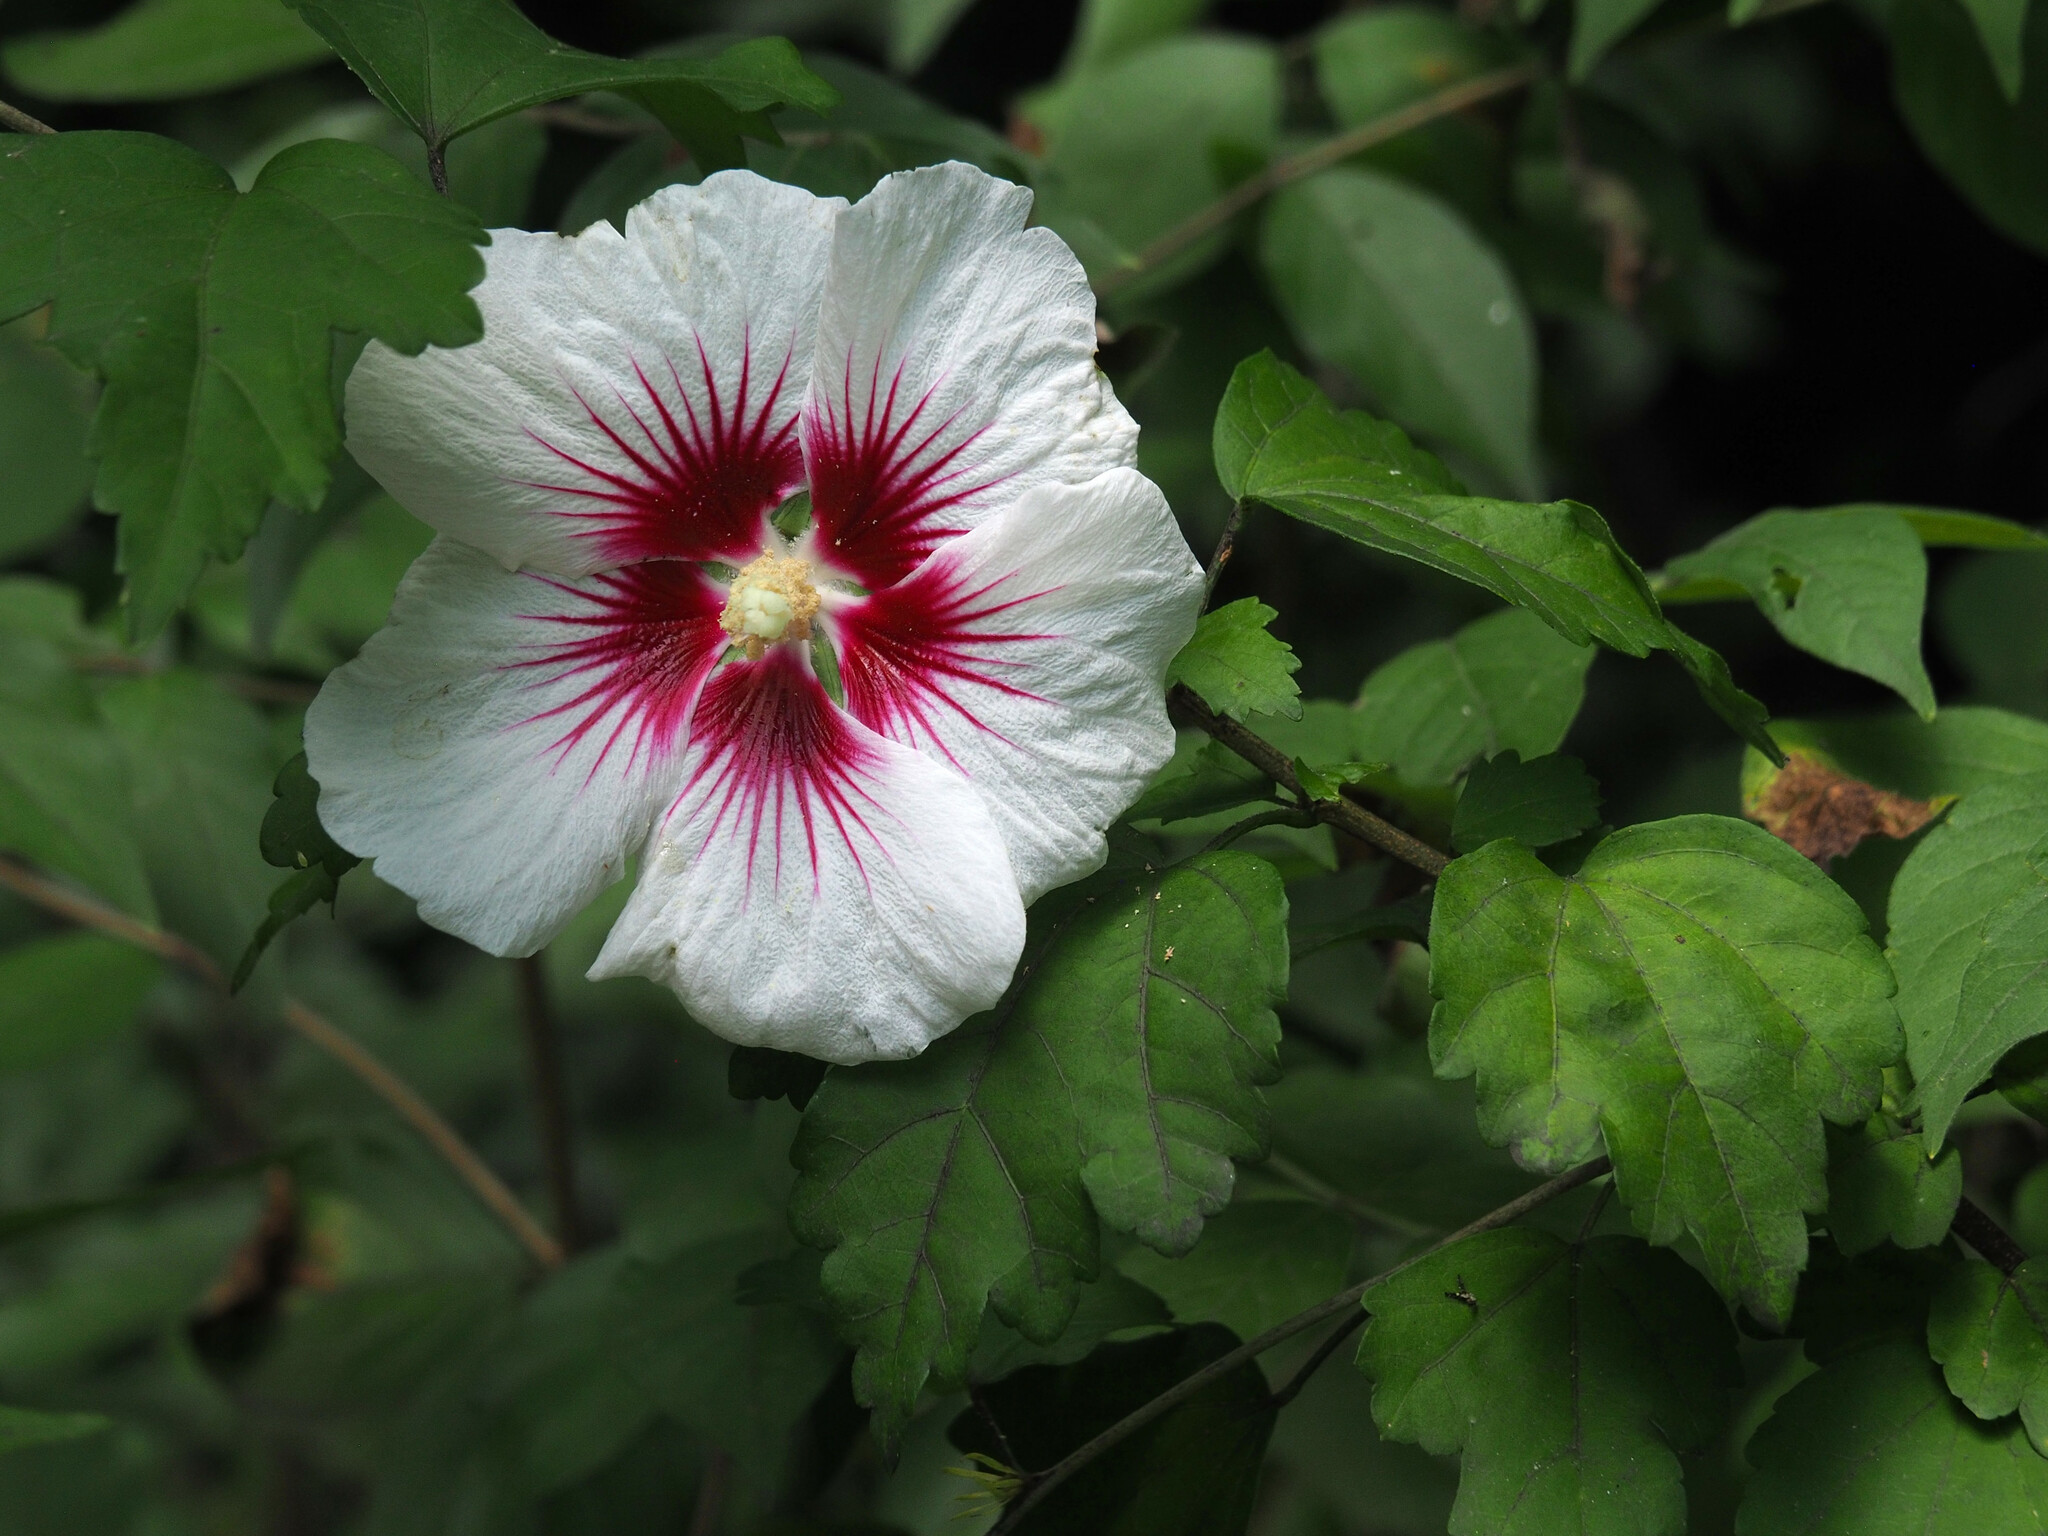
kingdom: Plantae
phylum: Tracheophyta
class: Magnoliopsida
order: Malvales
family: Malvaceae
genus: Hibiscus
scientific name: Hibiscus syriacus
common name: Syrian ketmia
